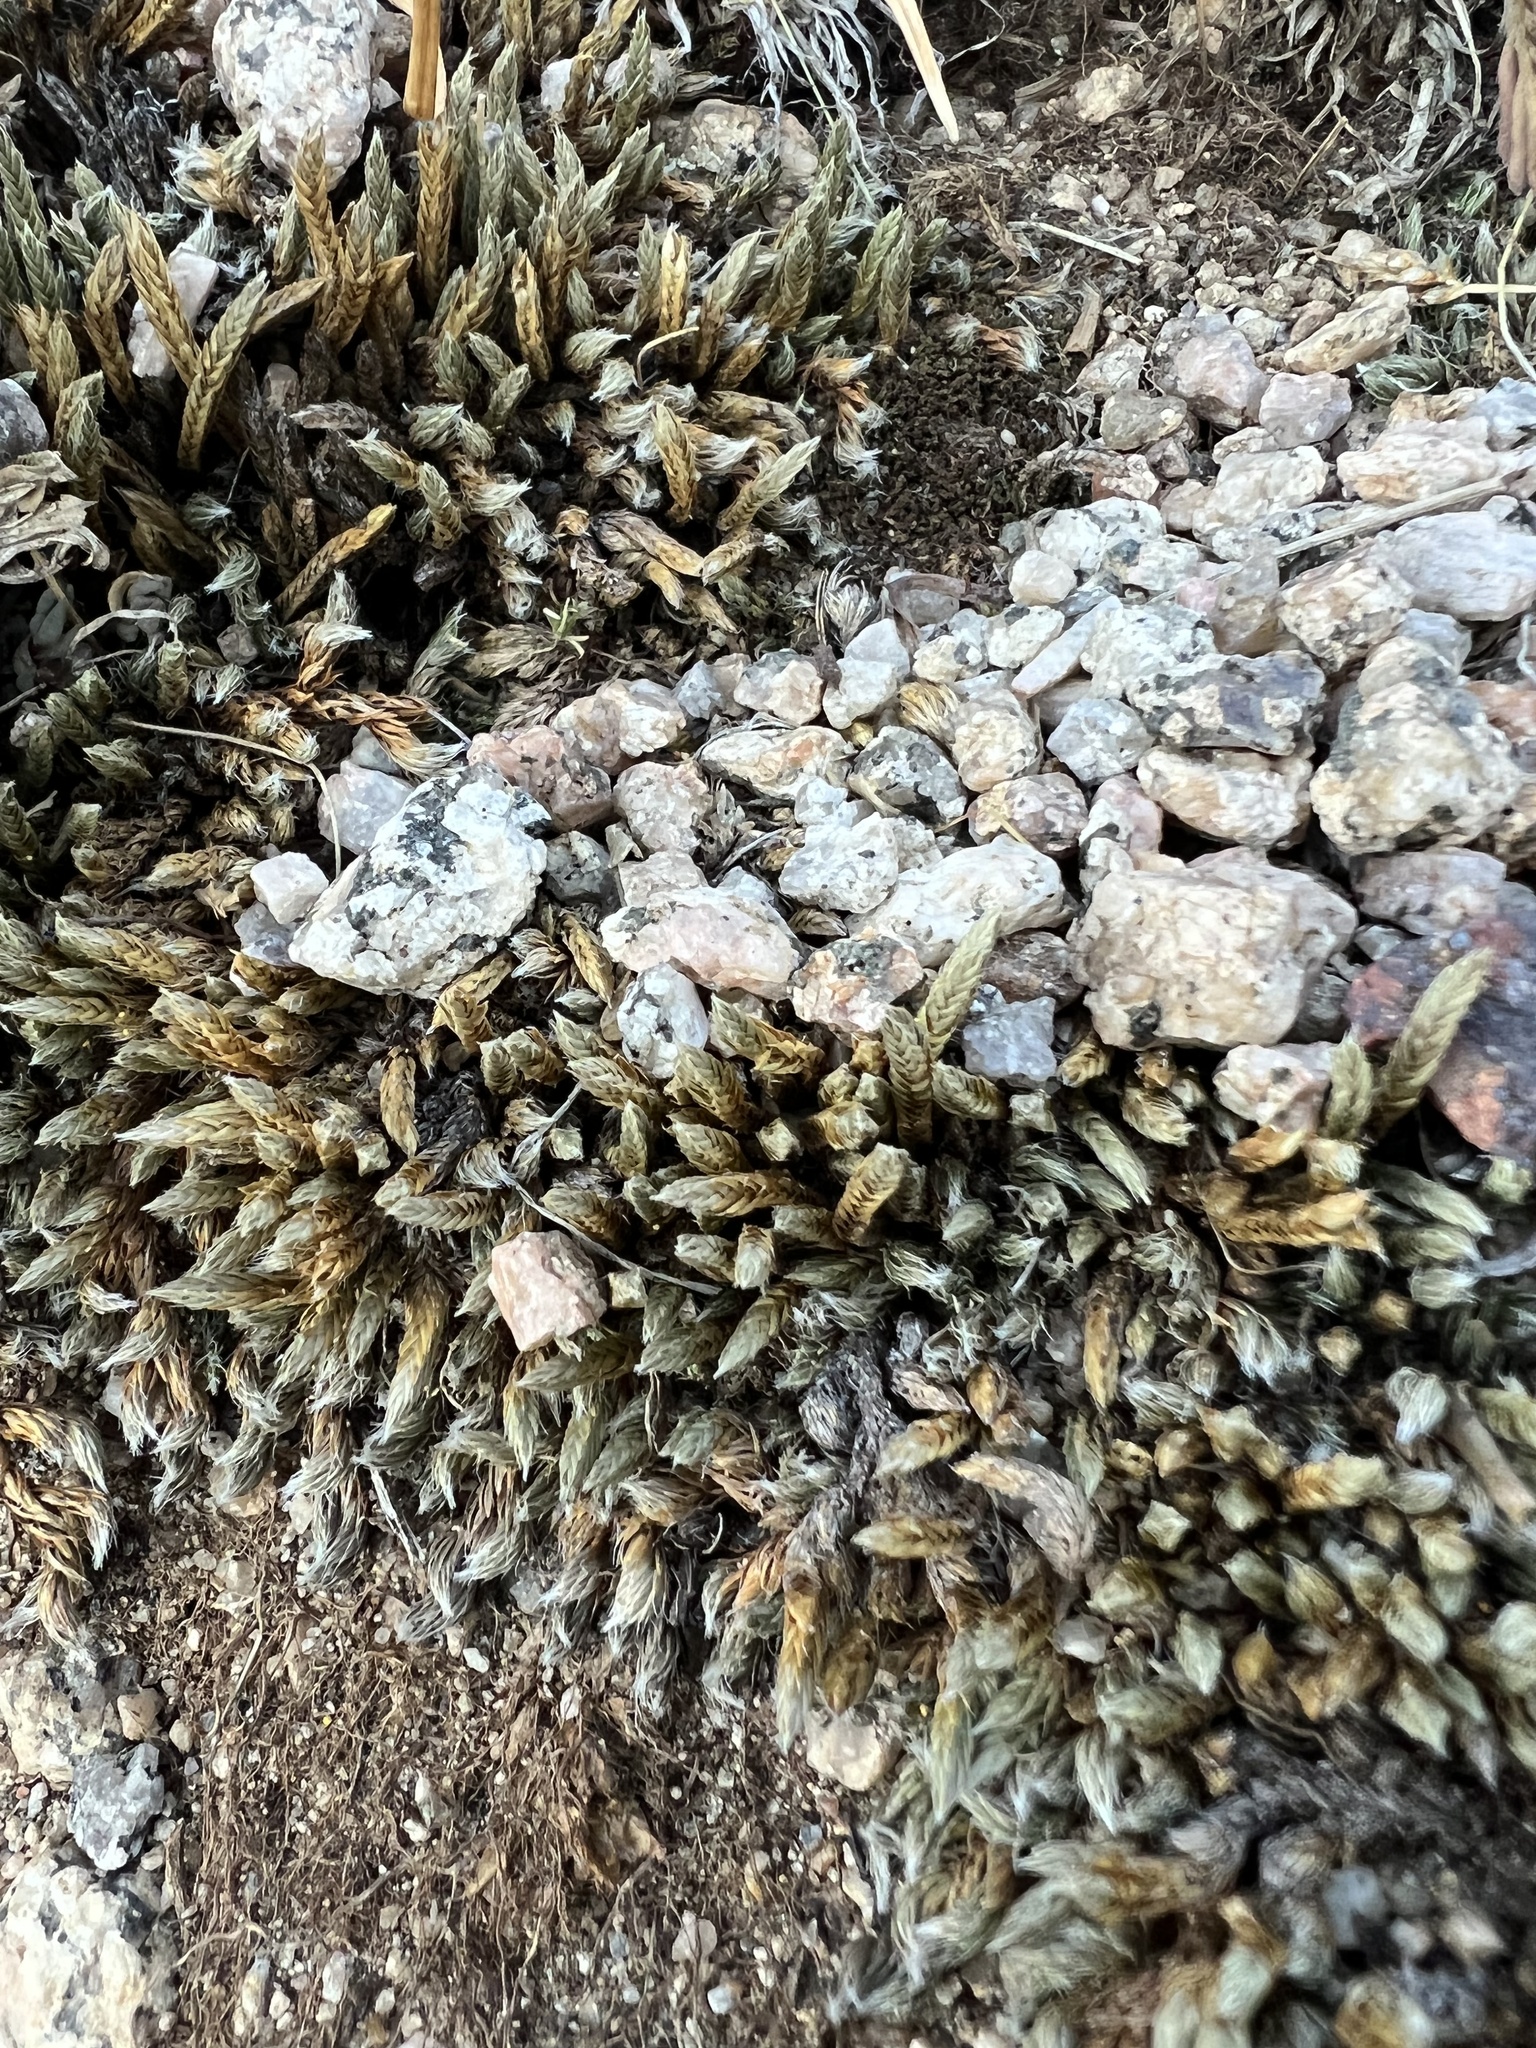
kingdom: Plantae
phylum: Tracheophyta
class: Lycopodiopsida
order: Selaginellales
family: Selaginellaceae
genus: Selaginella
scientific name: Selaginella densa
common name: Mountain spike-moss
